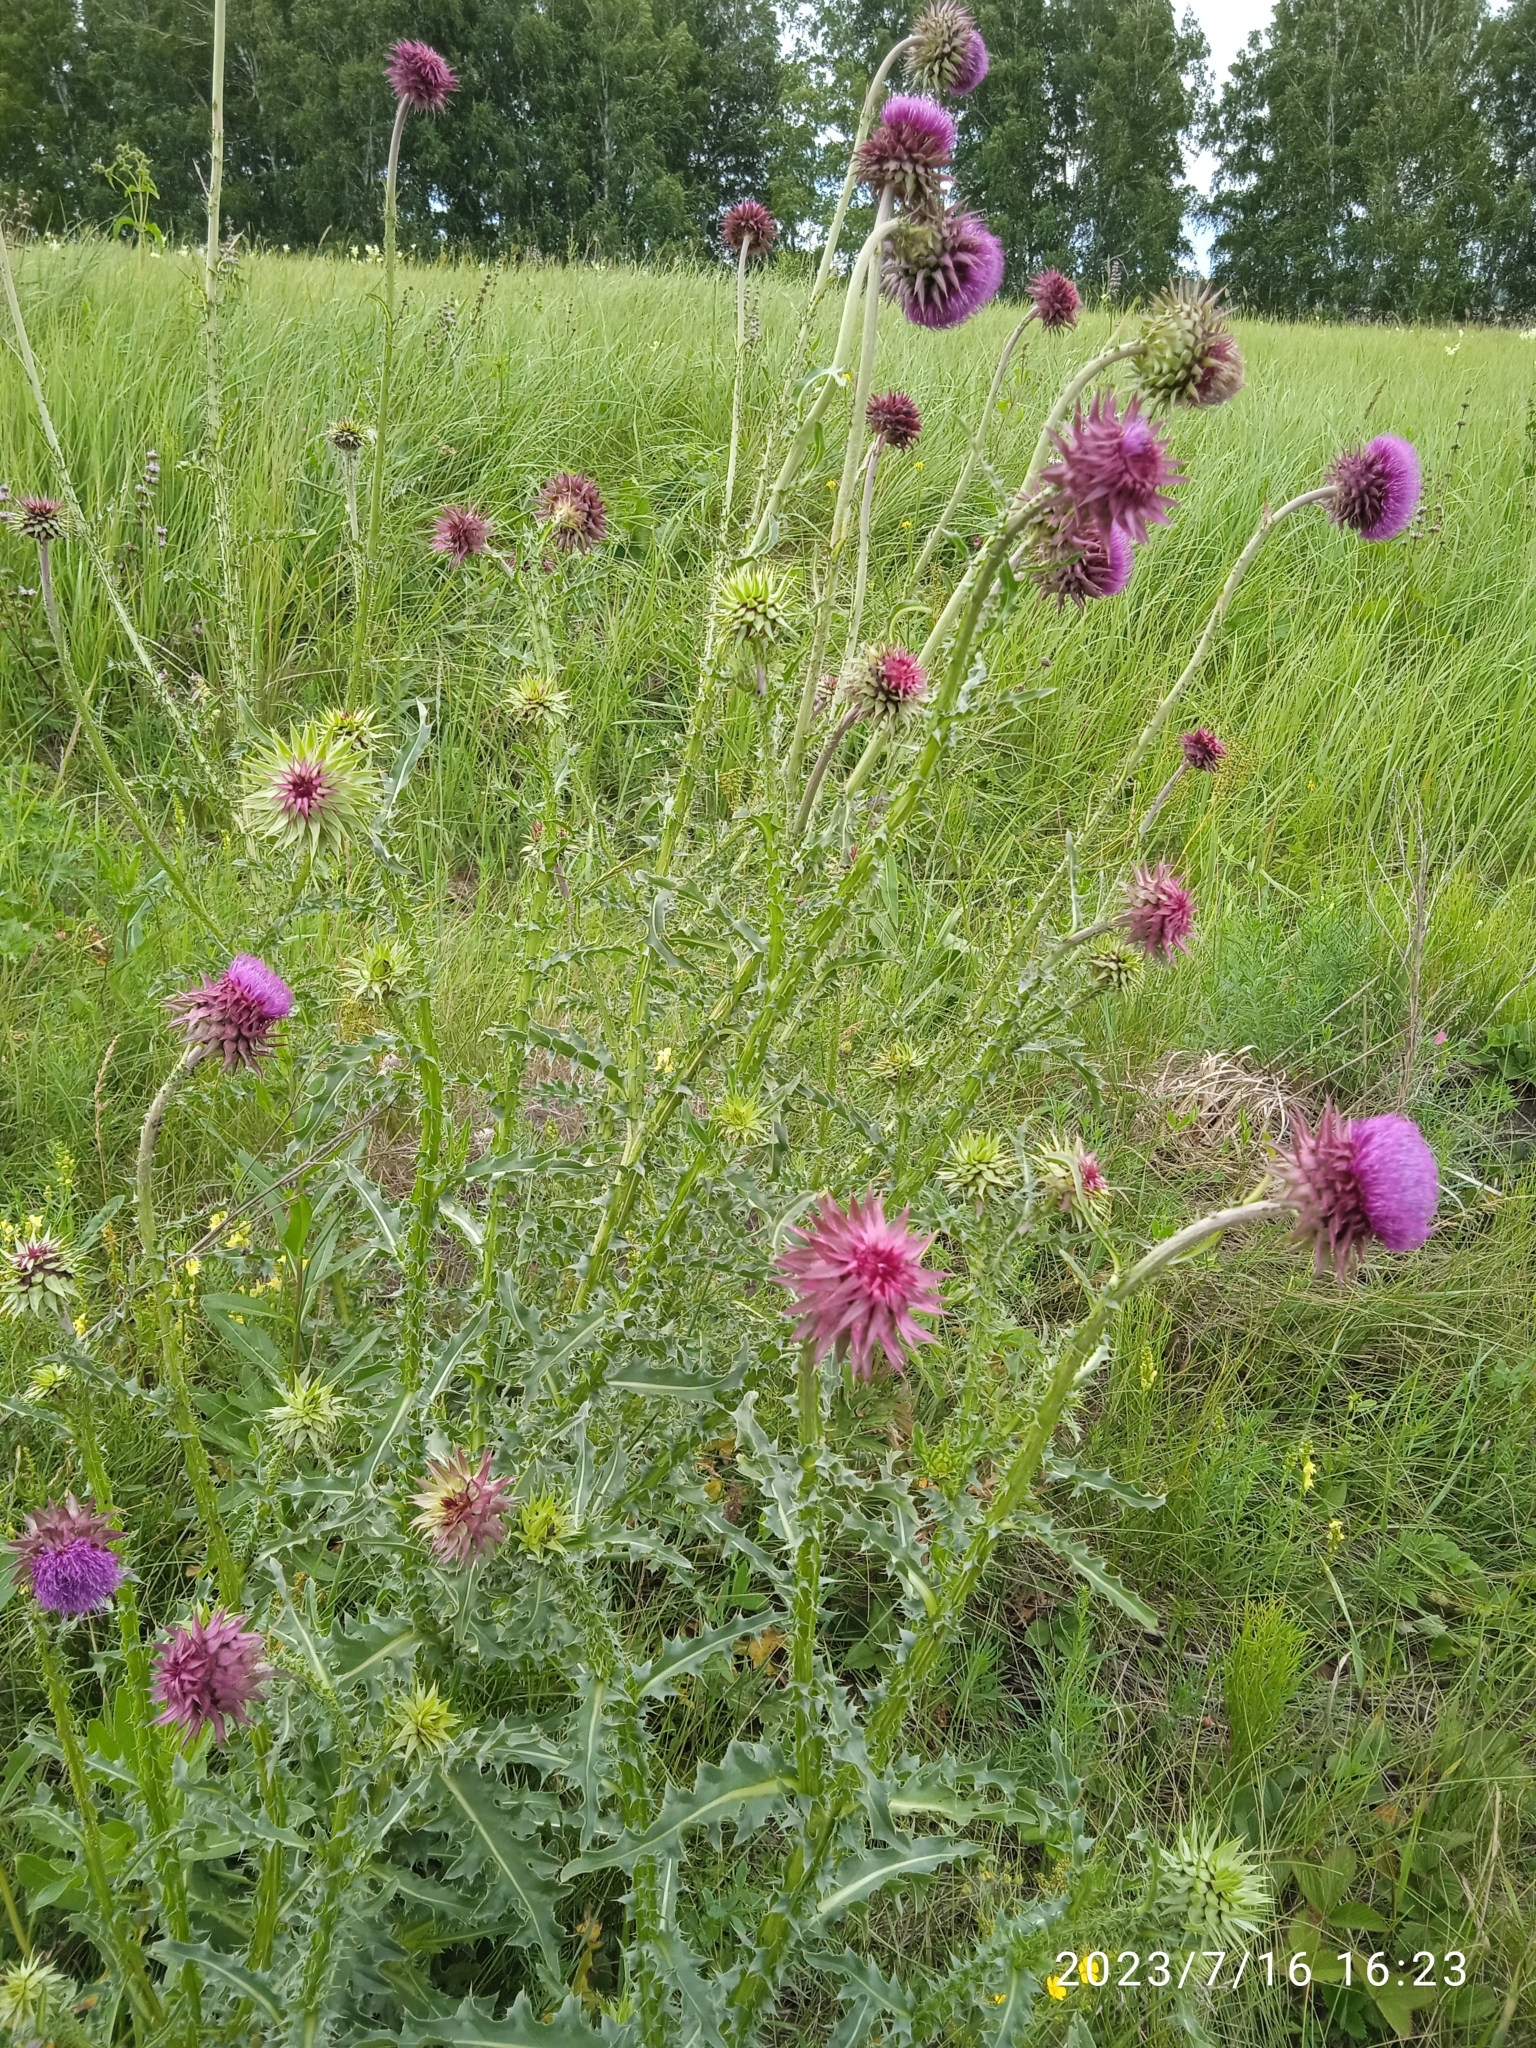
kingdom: Plantae
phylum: Tracheophyta
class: Magnoliopsida
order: Asterales
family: Asteraceae
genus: Carduus
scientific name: Carduus nutans
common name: Musk thistle
